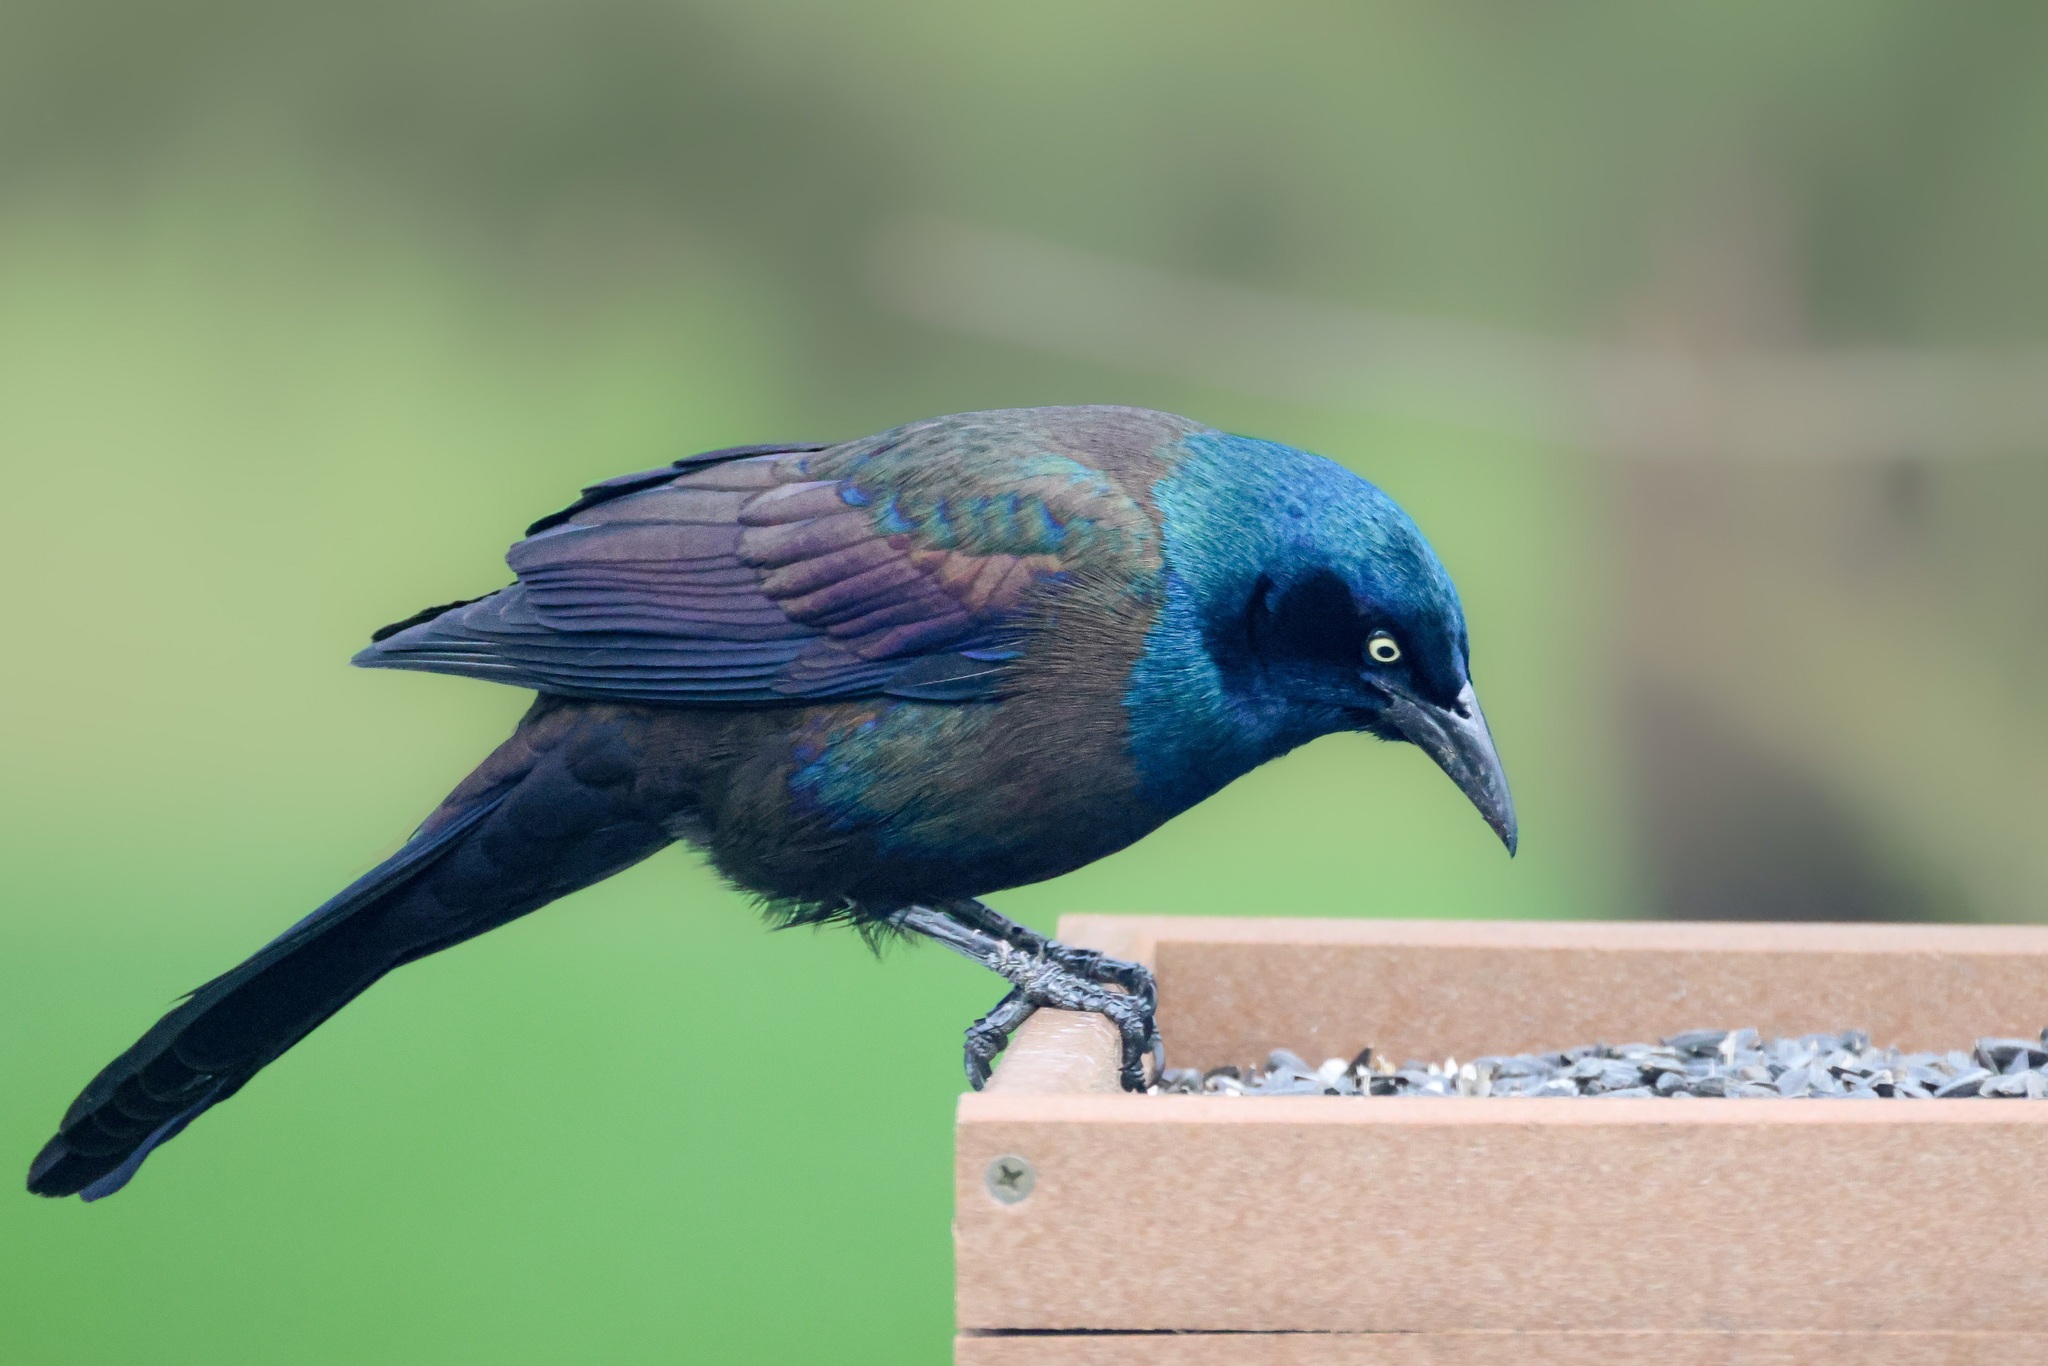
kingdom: Animalia
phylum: Chordata
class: Aves
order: Passeriformes
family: Icteridae
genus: Quiscalus
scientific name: Quiscalus quiscula
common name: Common grackle
